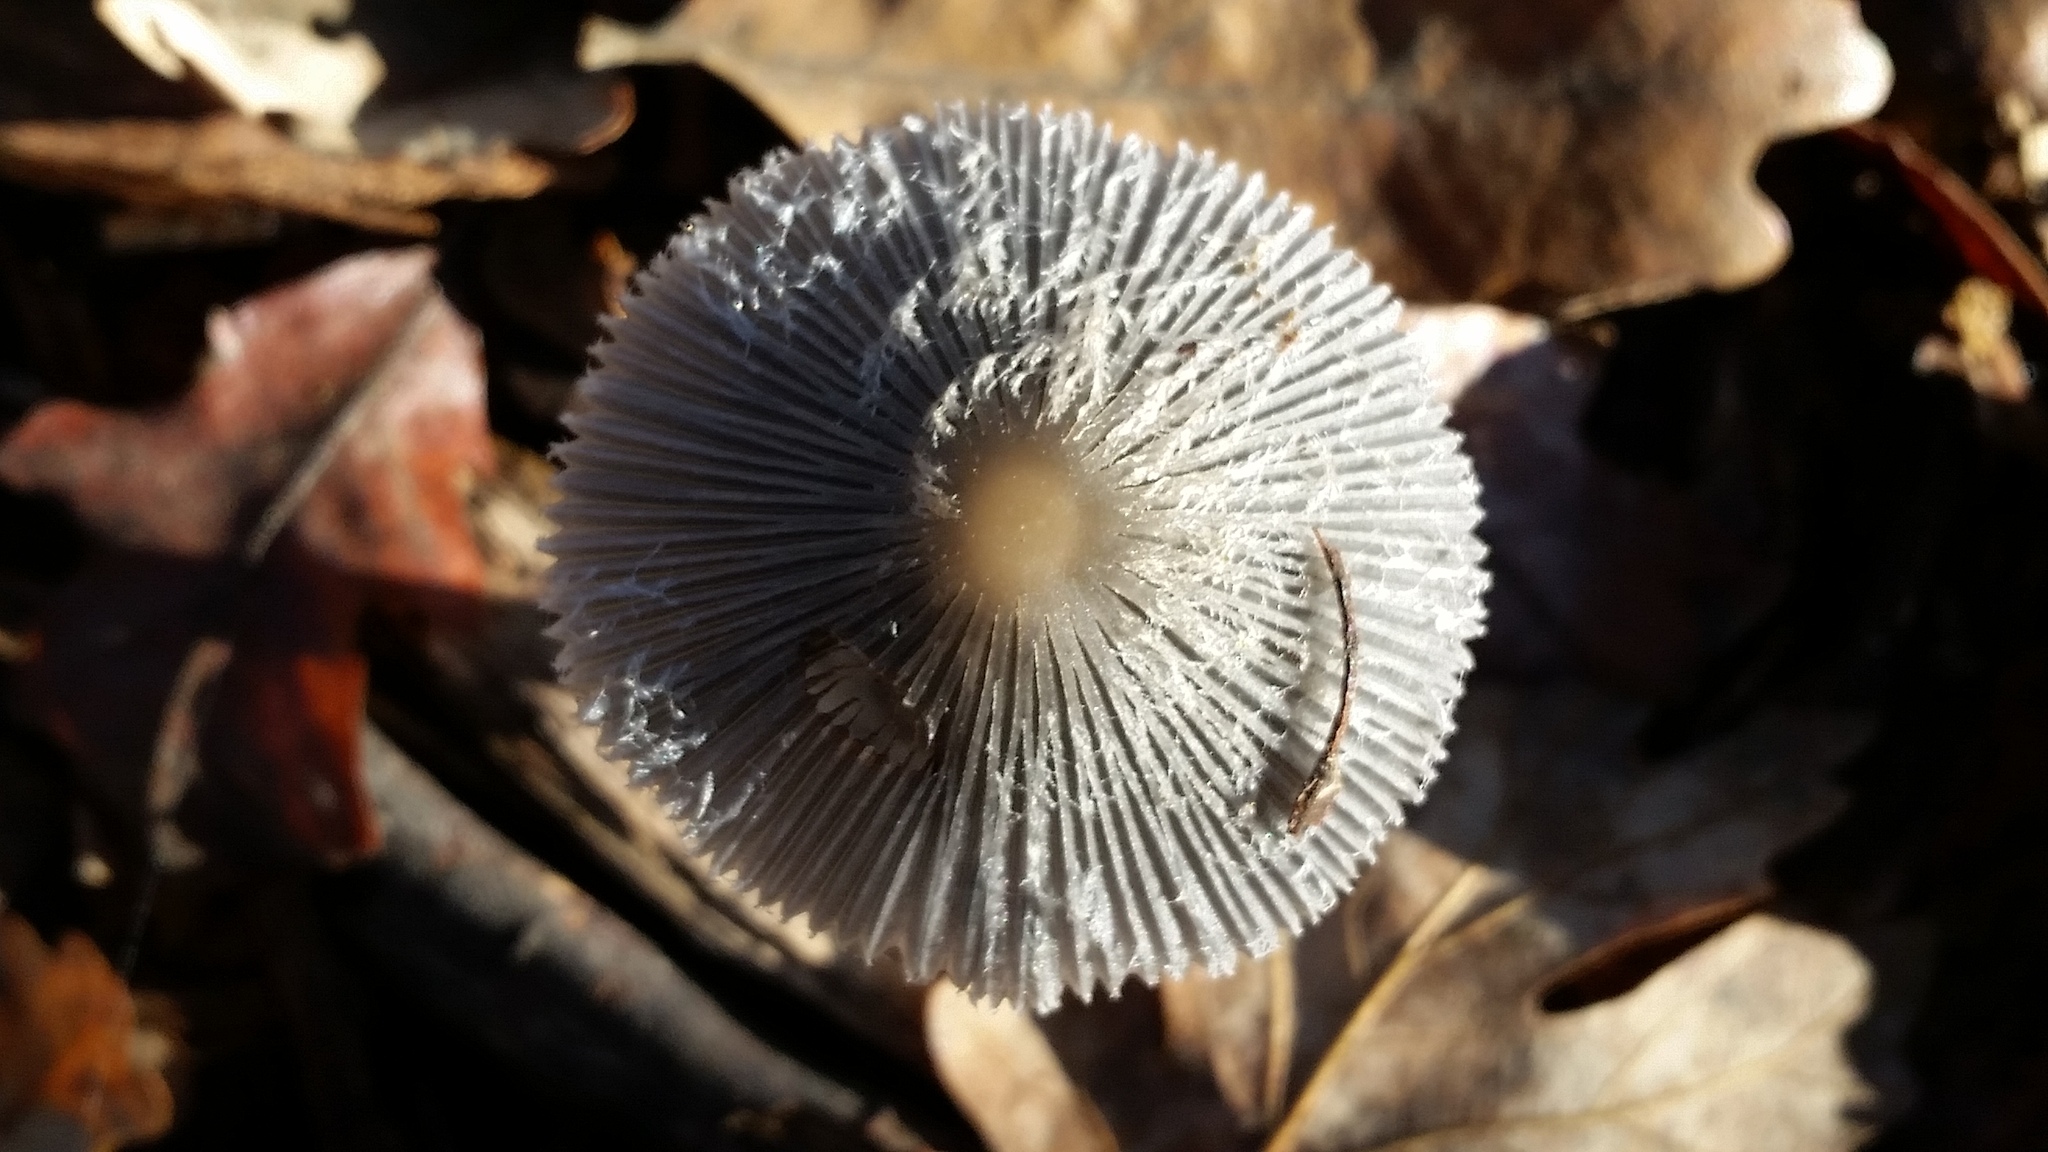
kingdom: Fungi
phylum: Basidiomycota
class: Agaricomycetes
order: Agaricales
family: Psathyrellaceae
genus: Coprinopsis
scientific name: Coprinopsis lagopus
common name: Hare'sfoot inkcap
